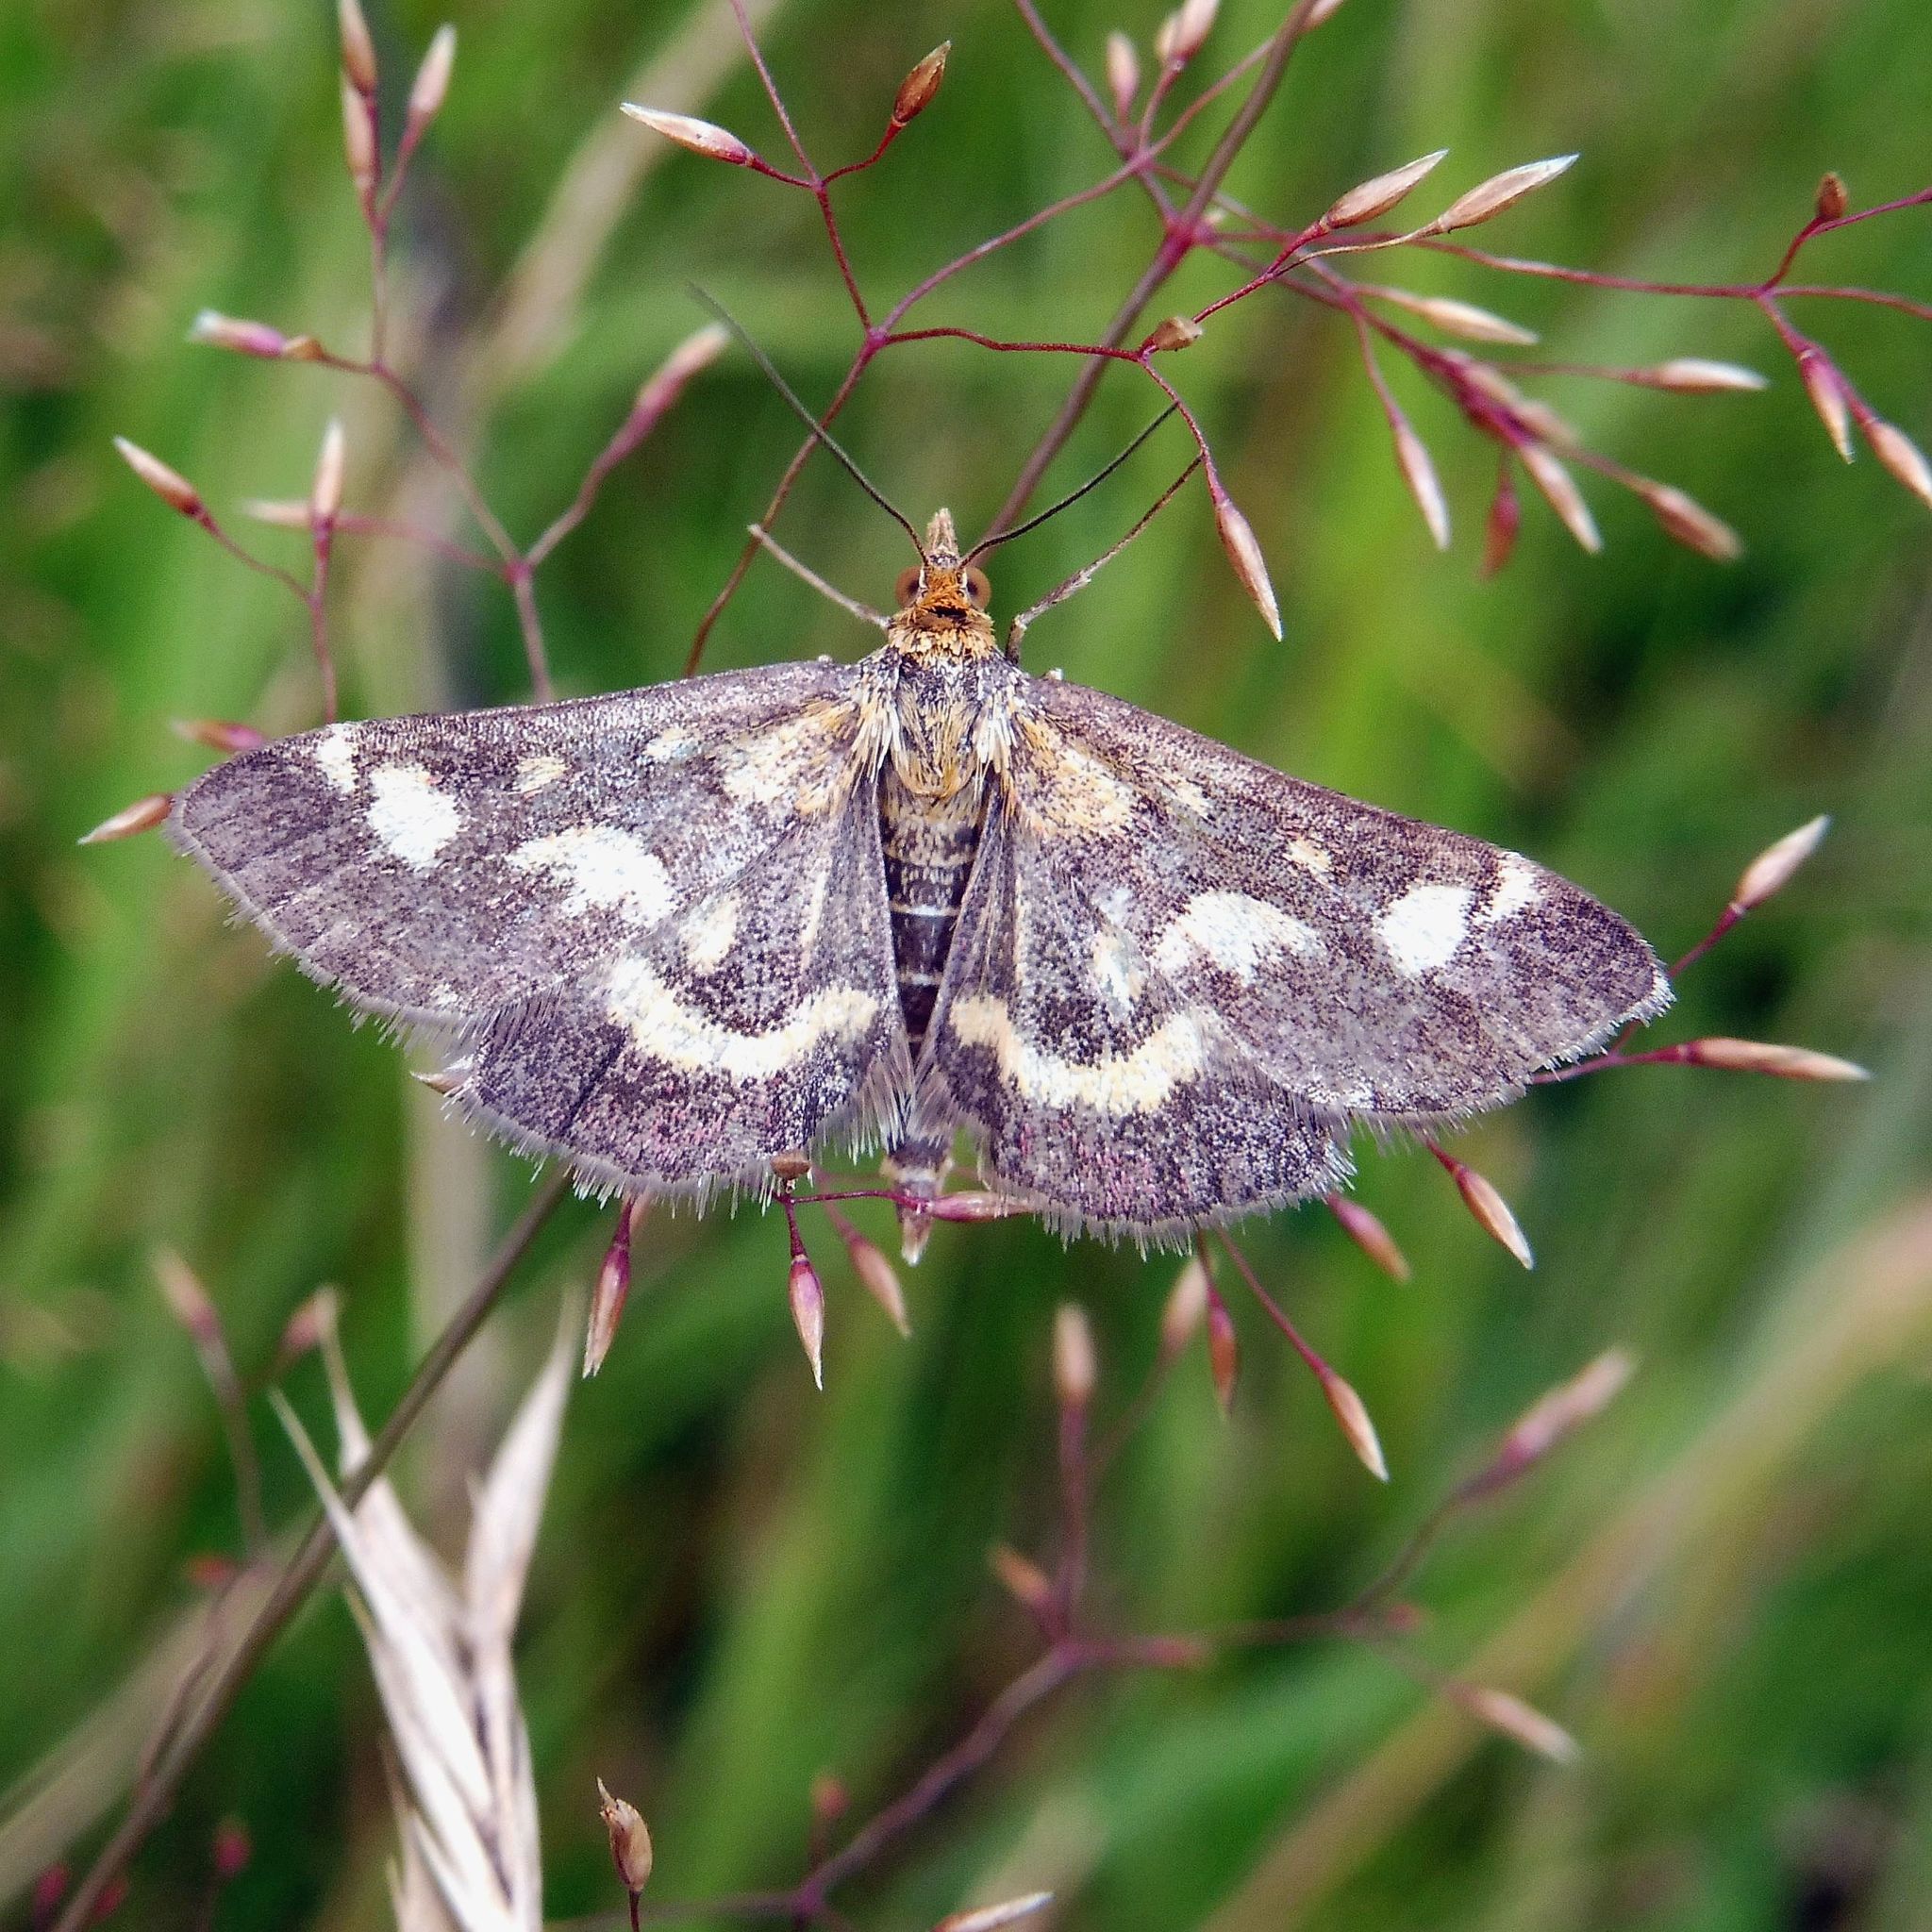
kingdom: Animalia
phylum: Arthropoda
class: Insecta
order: Lepidoptera
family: Crambidae
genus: Pyrausta
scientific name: Pyrausta purpuralis
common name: Common purple & gold
